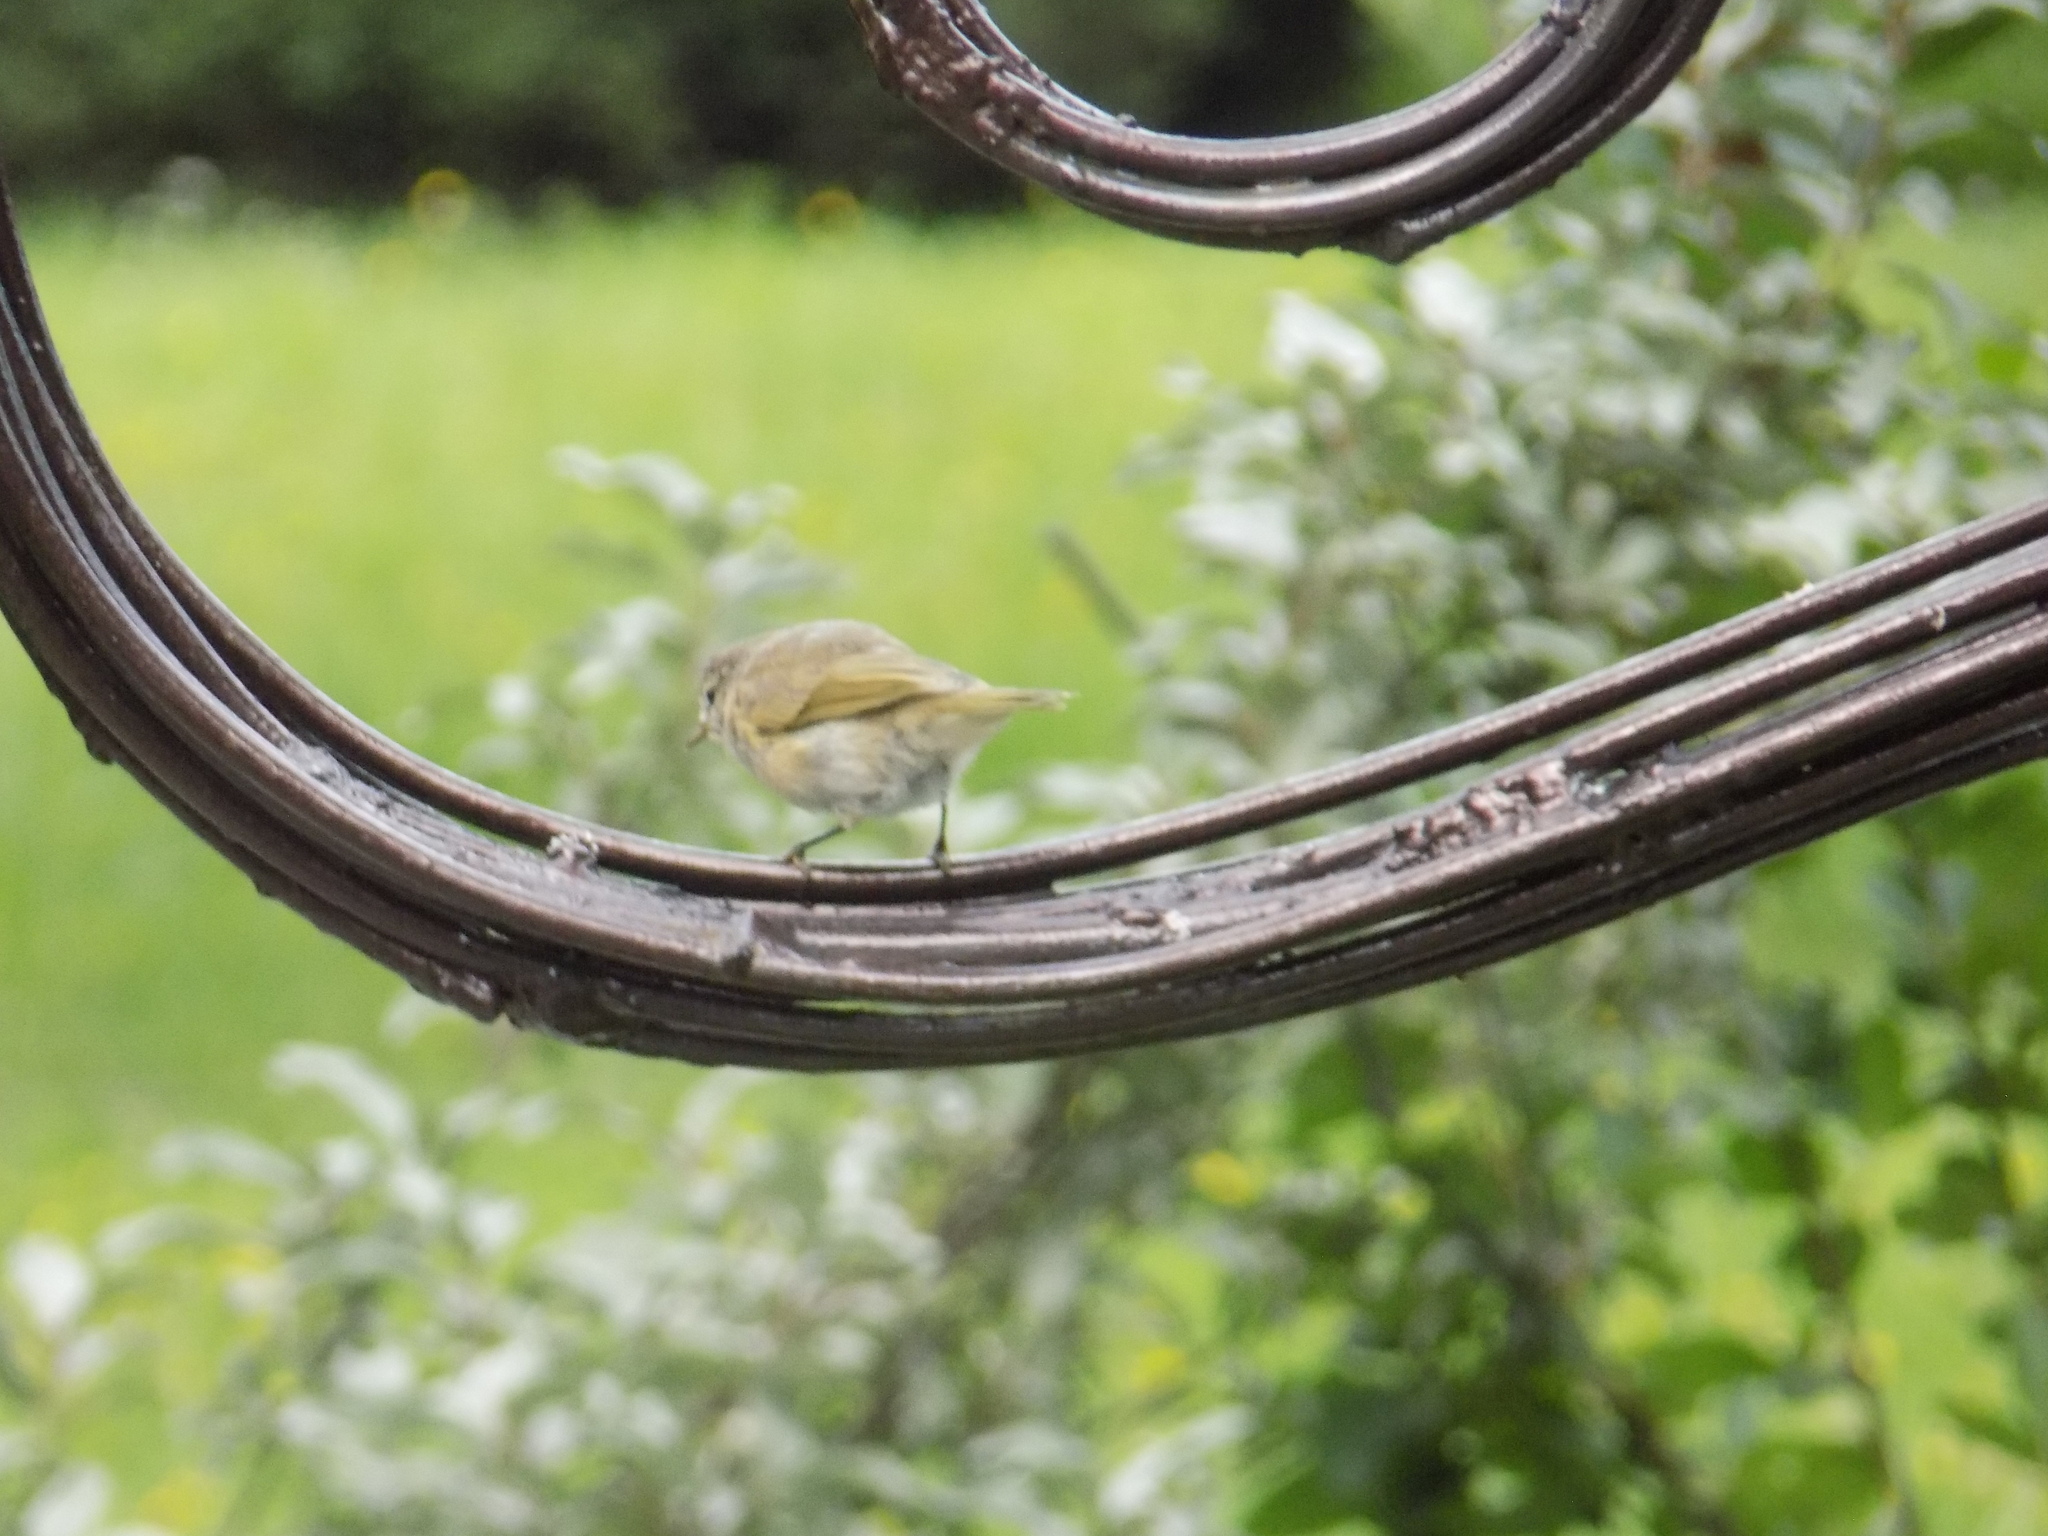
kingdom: Animalia
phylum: Chordata
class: Aves
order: Passeriformes
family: Phylloscopidae
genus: Phylloscopus
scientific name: Phylloscopus collybita
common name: Common chiffchaff
